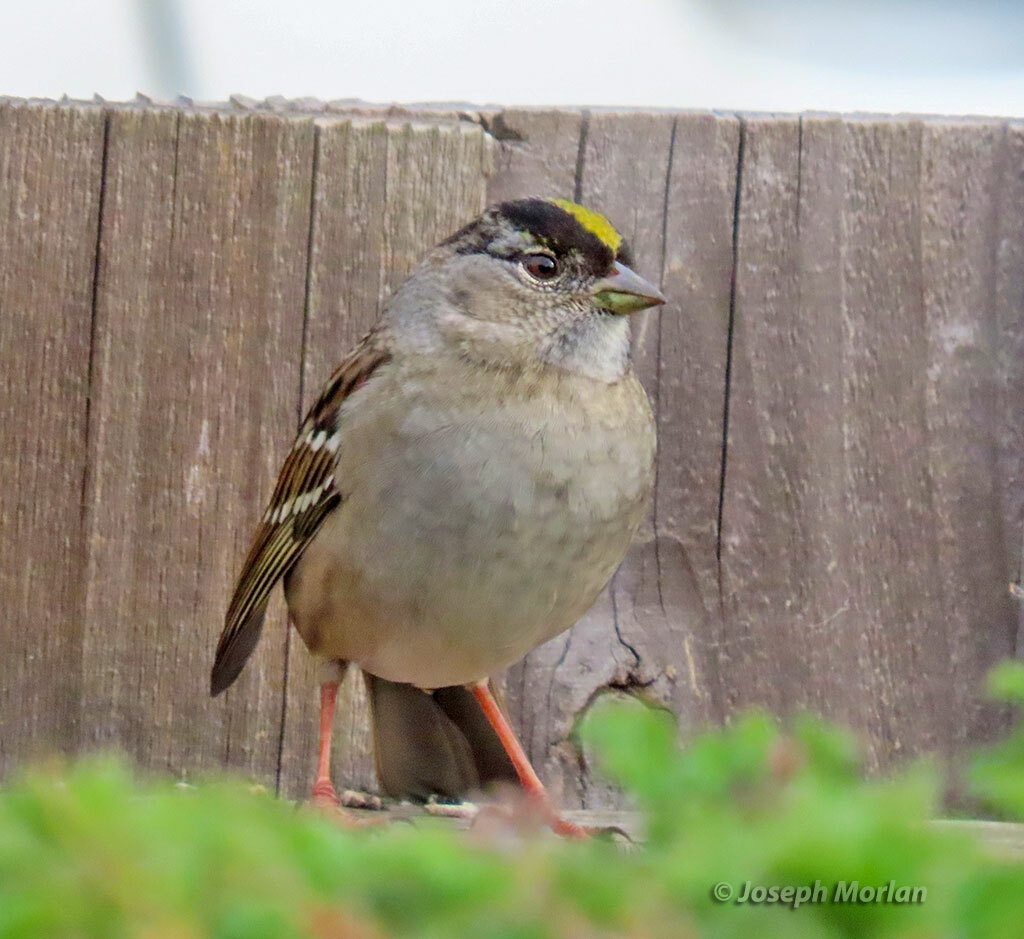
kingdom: Animalia
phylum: Chordata
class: Aves
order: Passeriformes
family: Passerellidae
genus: Zonotrichia
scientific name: Zonotrichia atricapilla
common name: Golden-crowned sparrow
